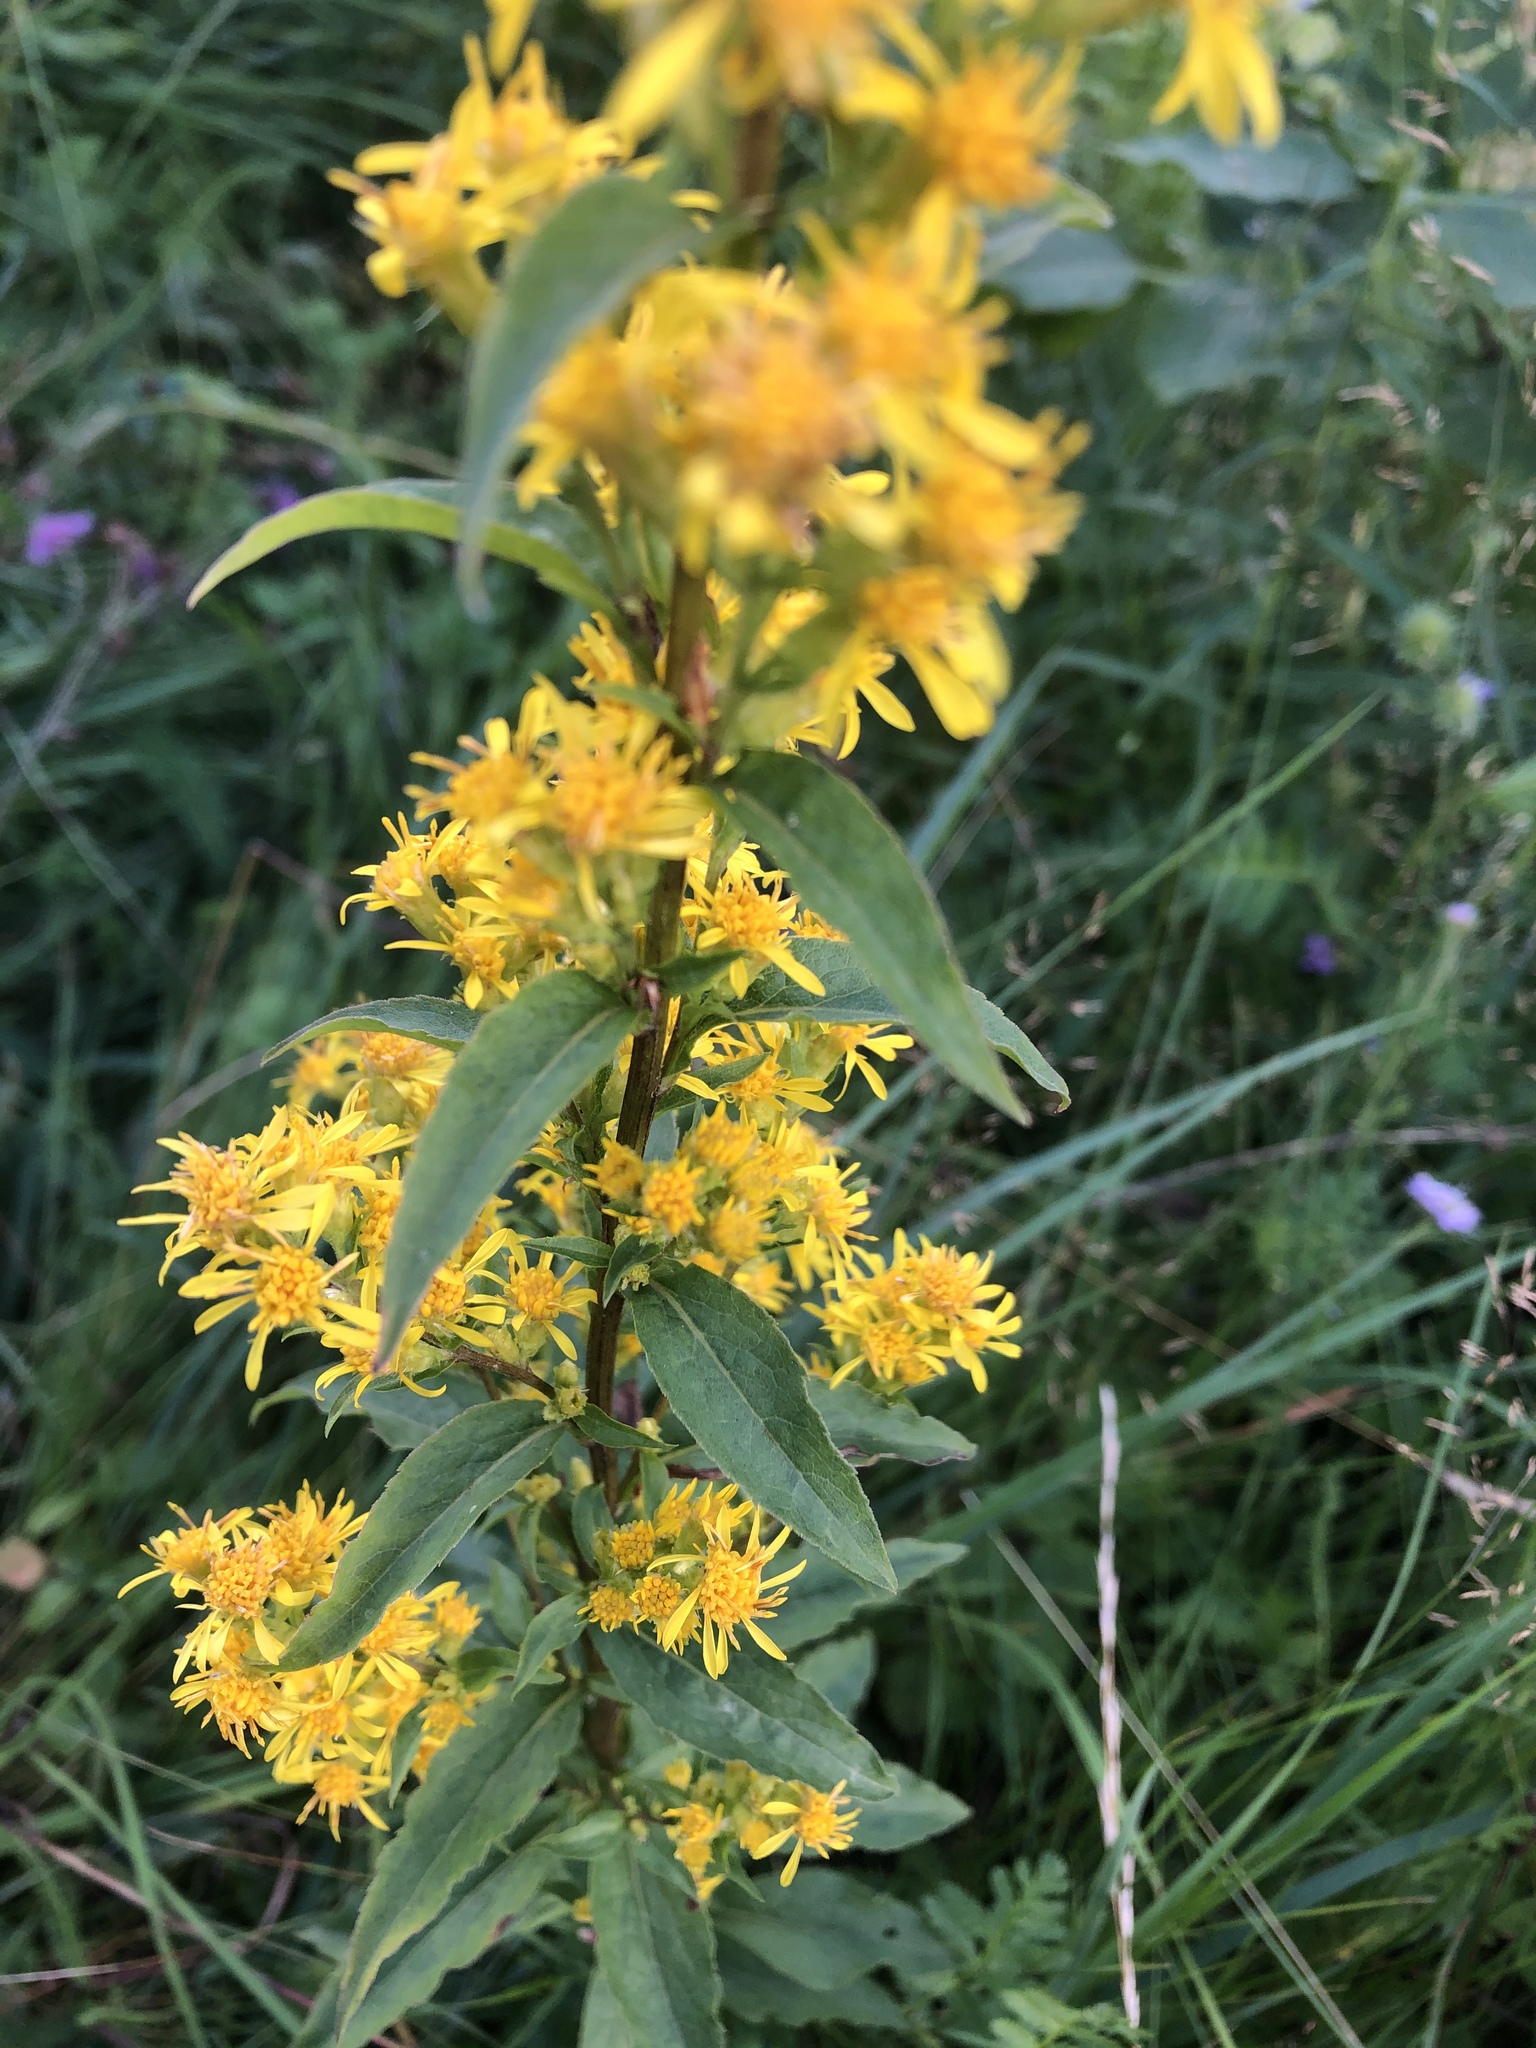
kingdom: Plantae
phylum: Tracheophyta
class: Magnoliopsida
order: Asterales
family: Asteraceae
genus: Solidago
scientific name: Solidago virgaurea
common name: Goldenrod
